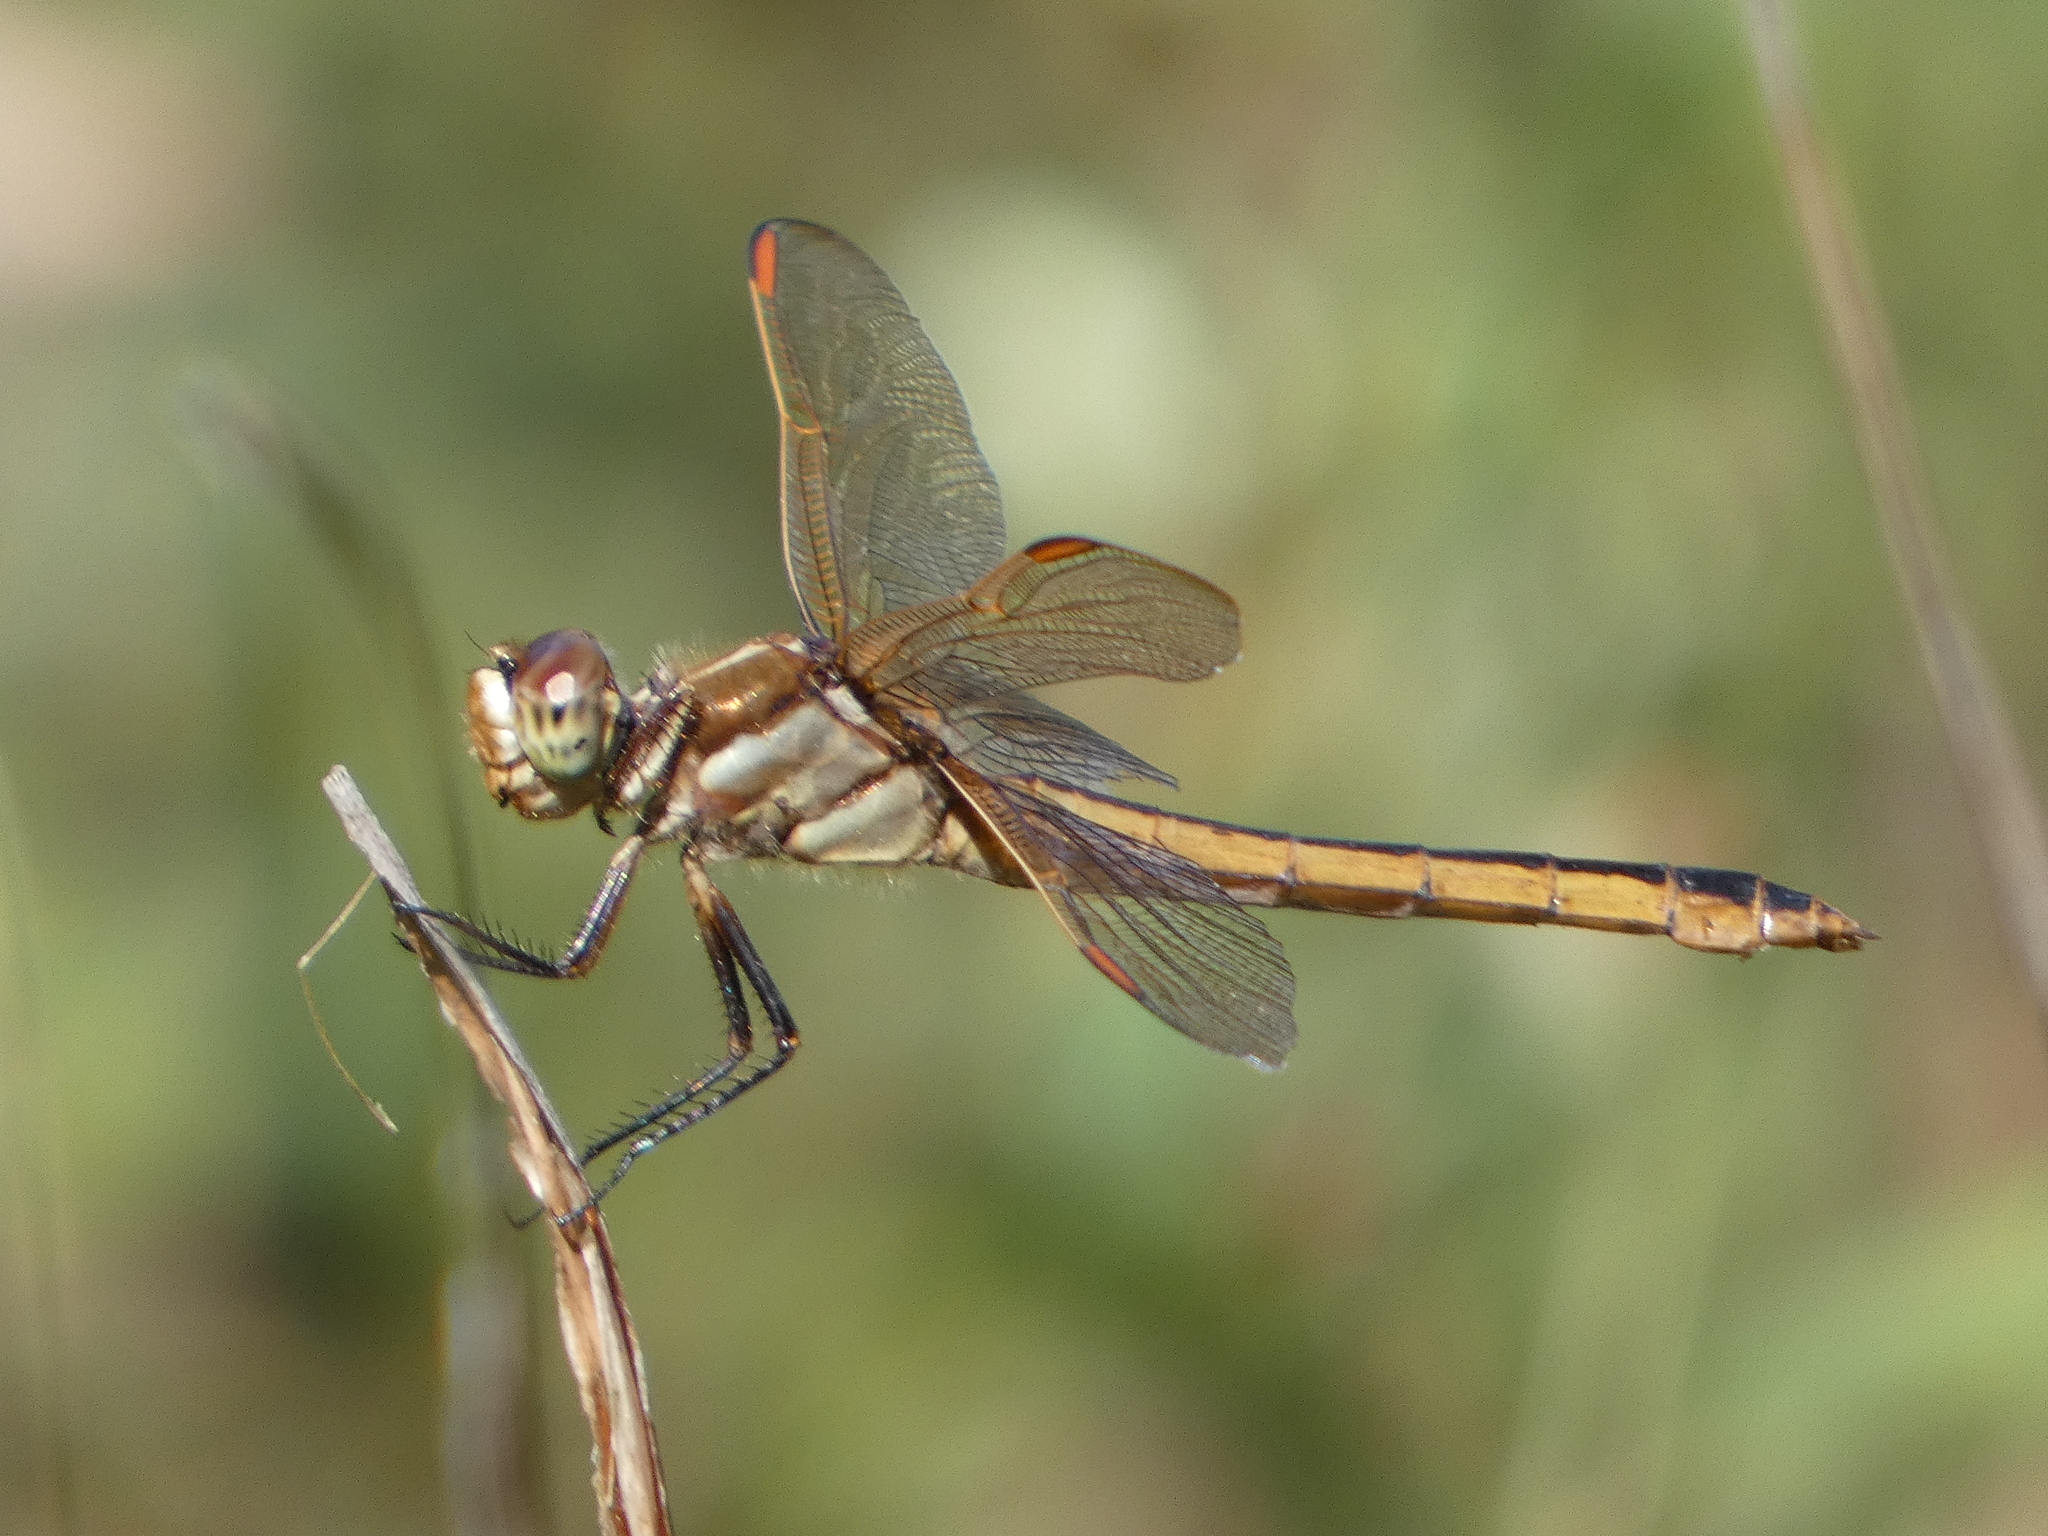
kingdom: Animalia
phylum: Arthropoda
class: Insecta
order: Odonata
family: Libellulidae
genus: Libellula
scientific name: Libellula auripennis
